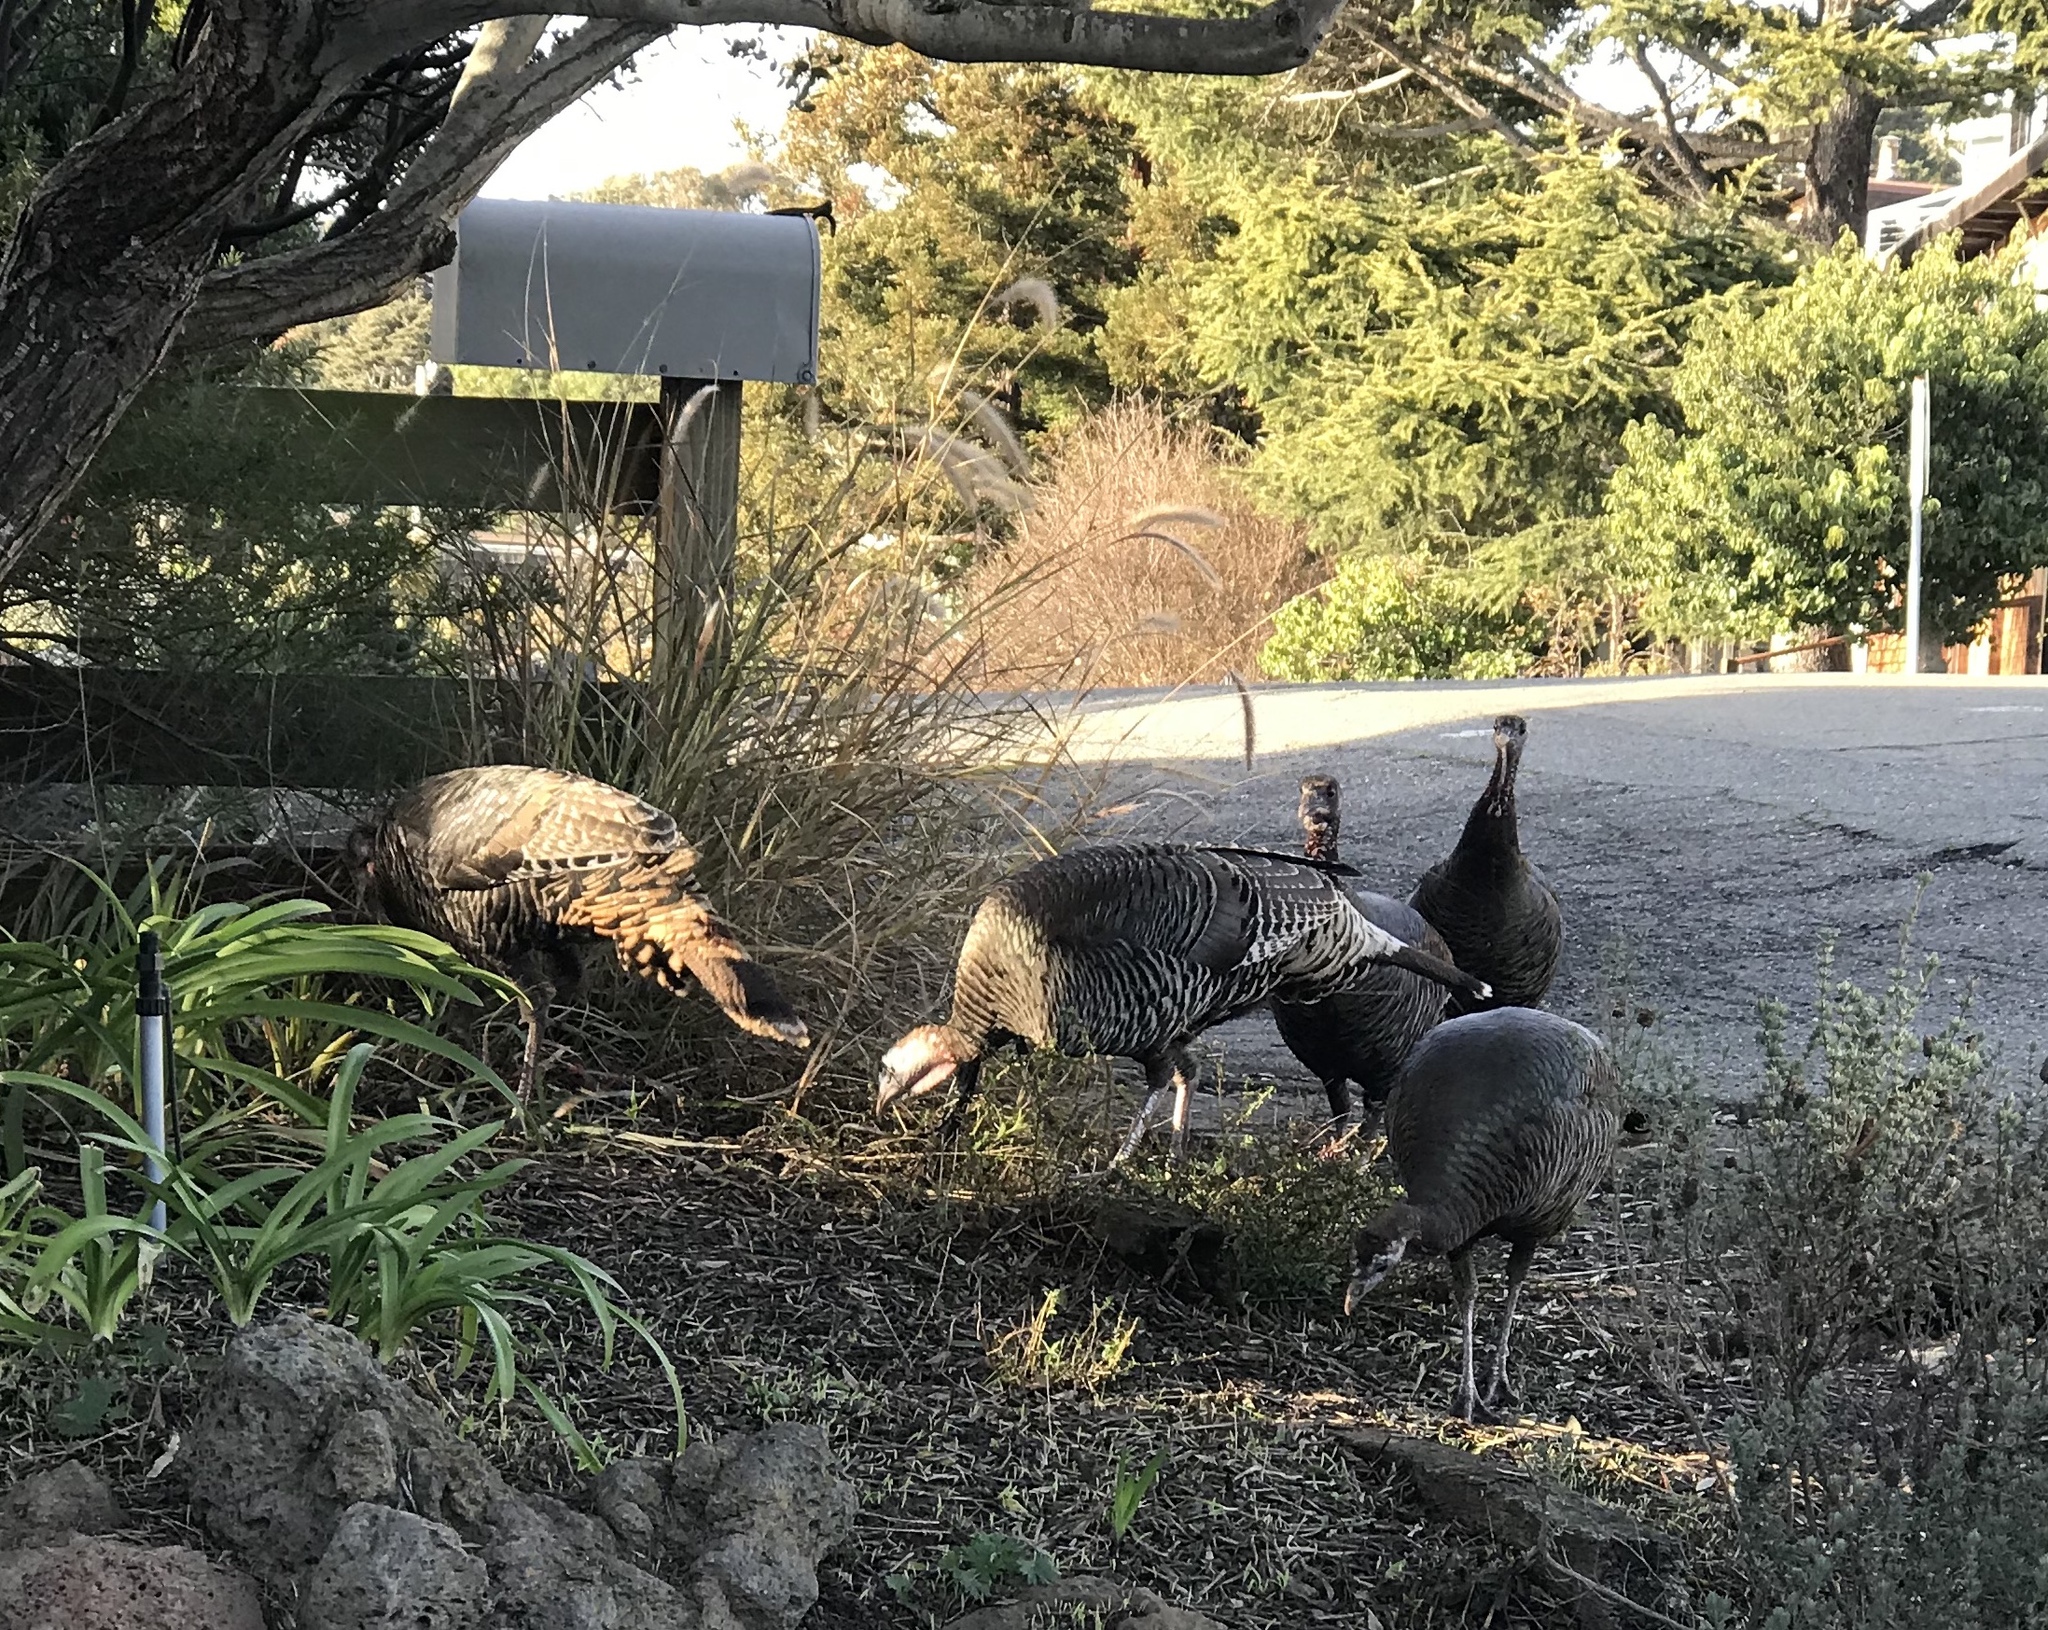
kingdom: Animalia
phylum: Chordata
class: Aves
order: Galliformes
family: Phasianidae
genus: Meleagris
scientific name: Meleagris gallopavo
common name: Wild turkey
